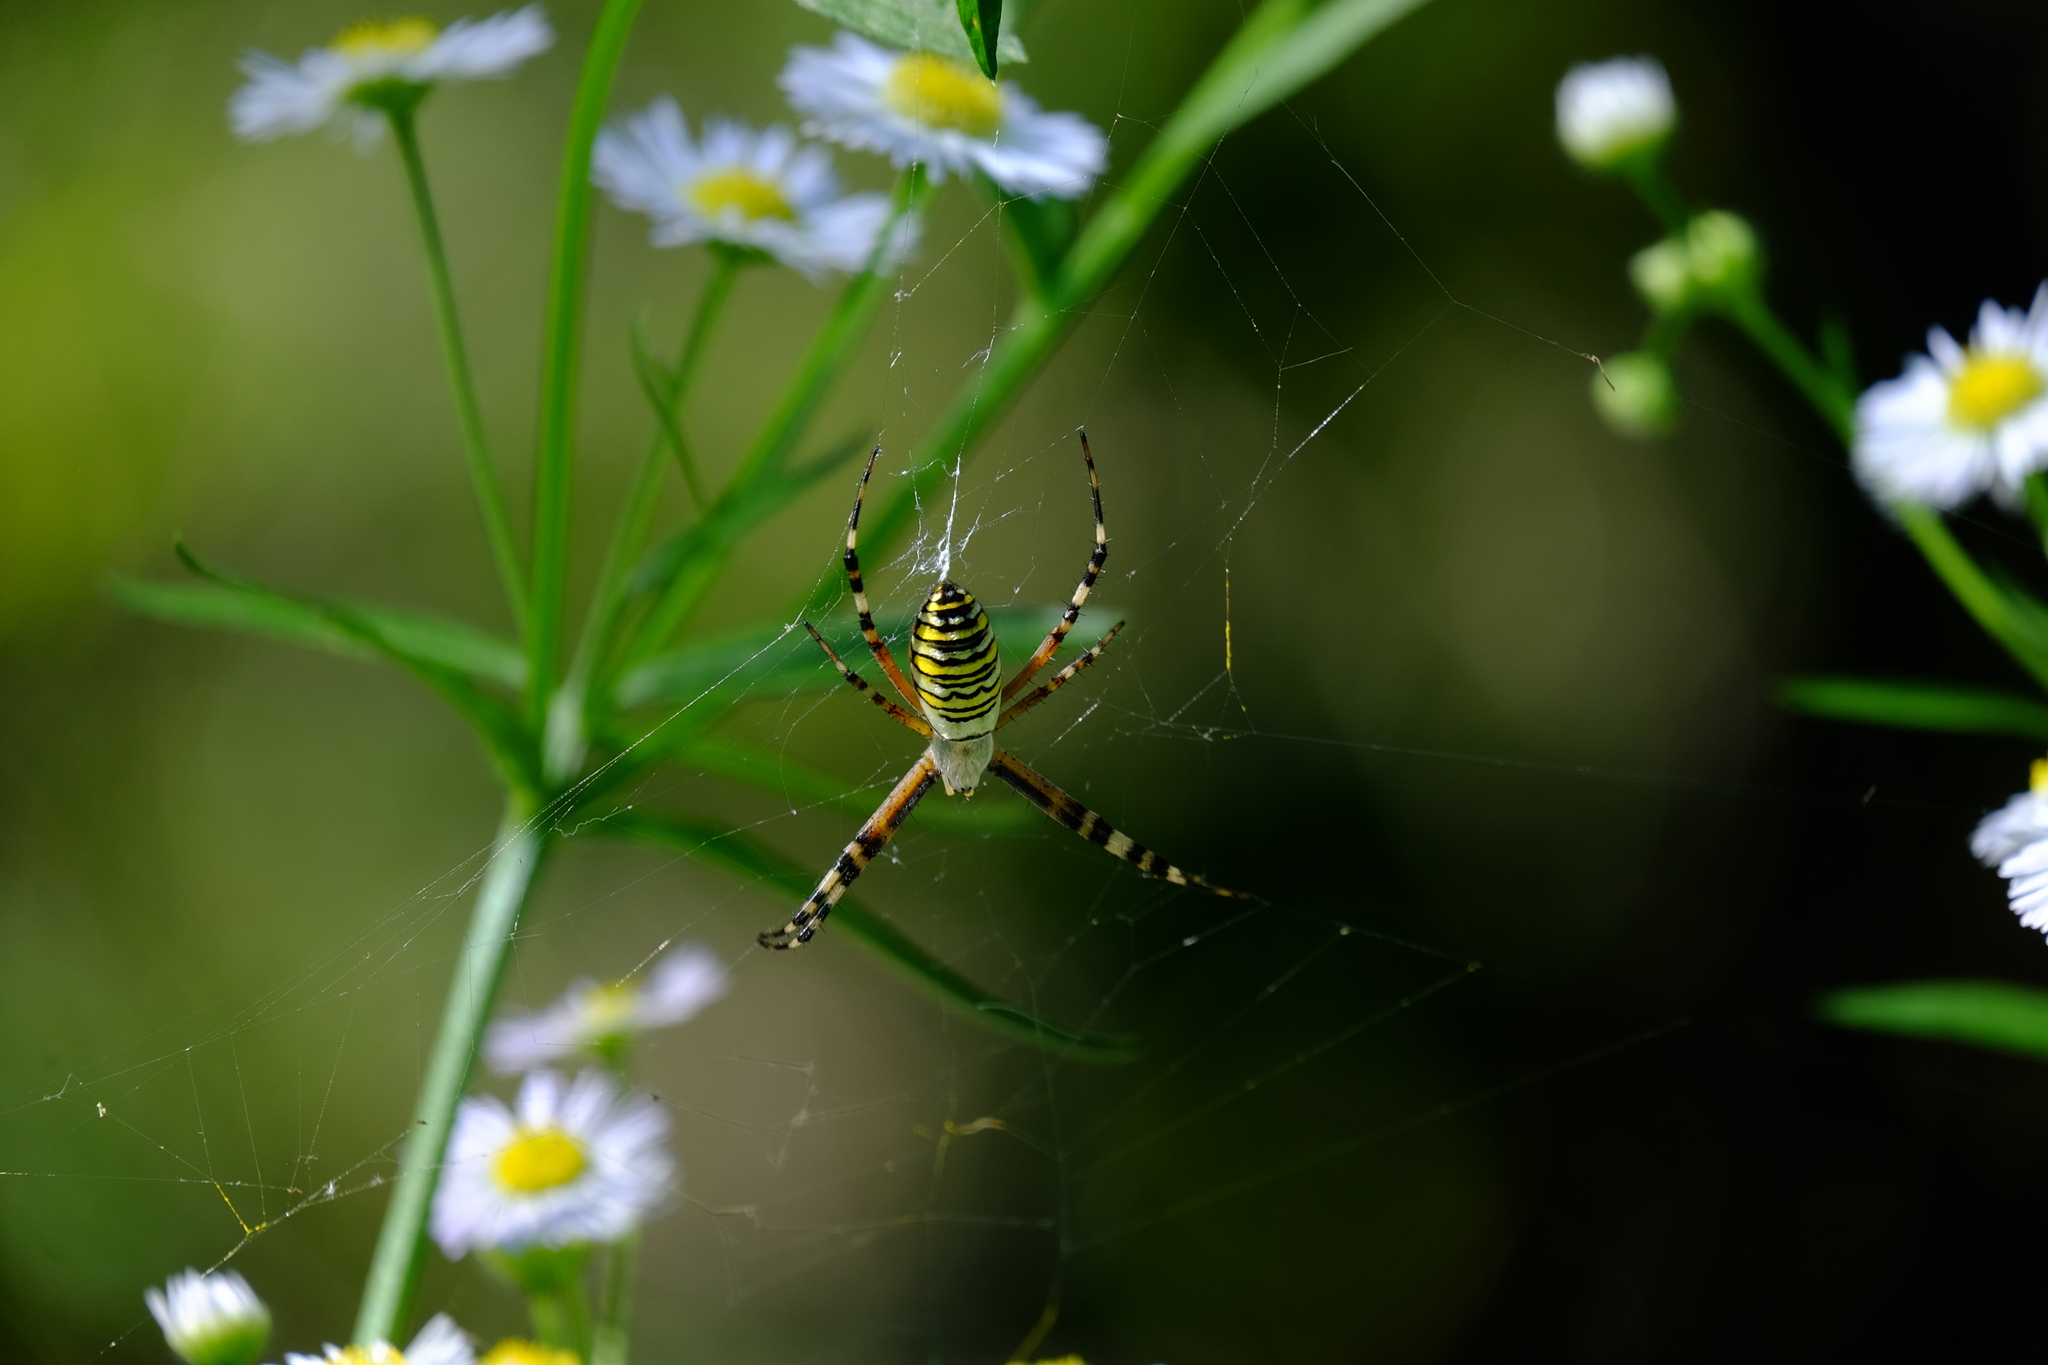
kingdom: Animalia
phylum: Arthropoda
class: Arachnida
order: Araneae
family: Araneidae
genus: Argiope
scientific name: Argiope bruennichi
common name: Wasp spider
